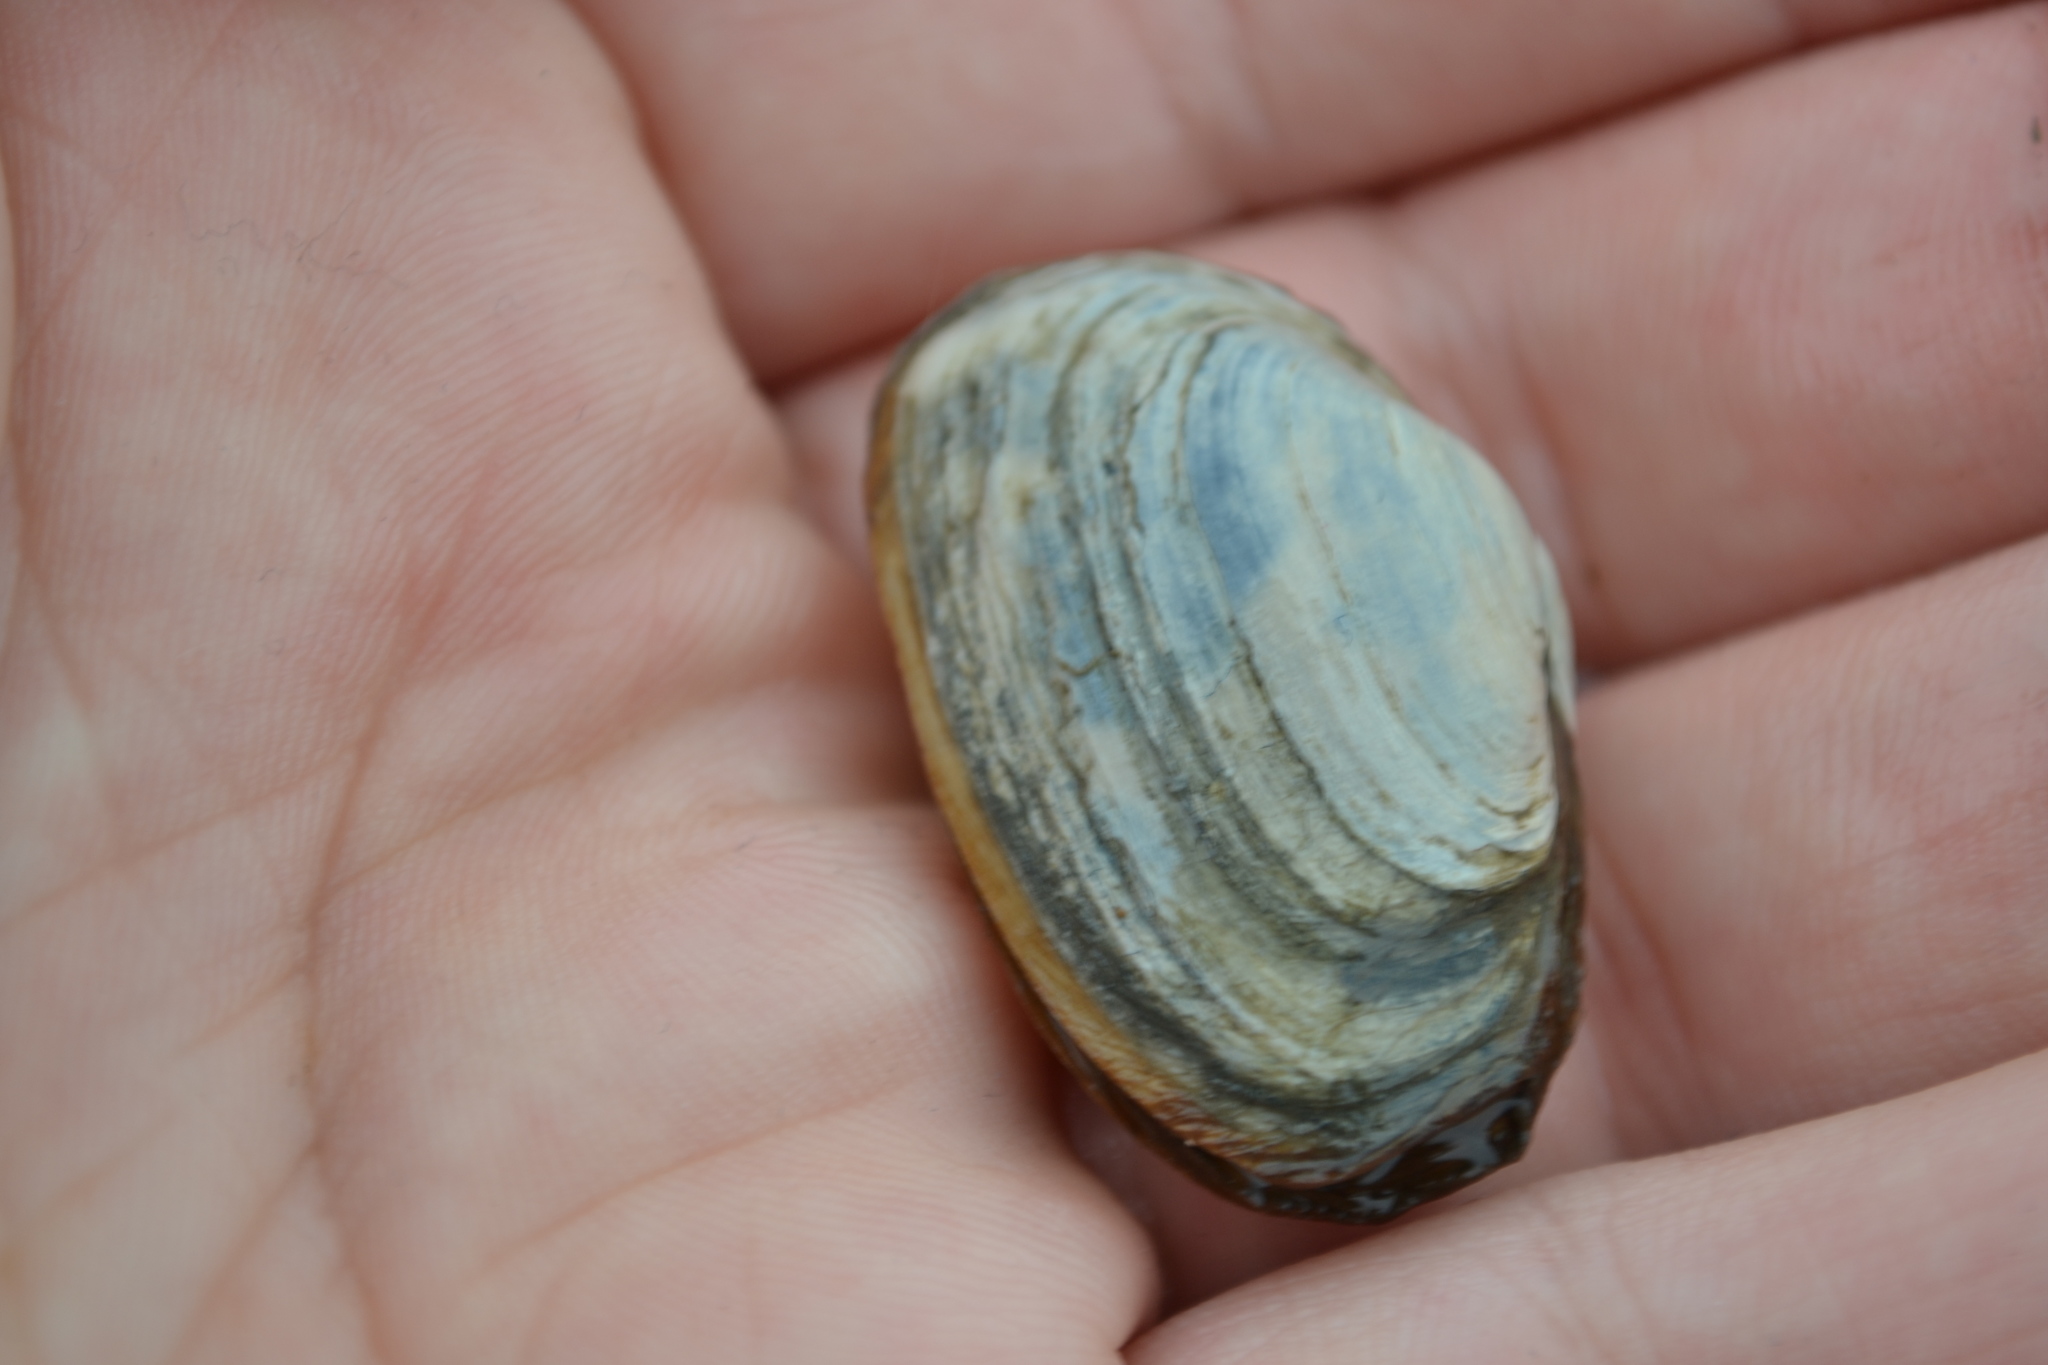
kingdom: Animalia
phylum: Mollusca
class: Bivalvia
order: Myida
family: Myidae
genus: Mya
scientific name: Mya arenaria
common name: Soft-shelled clam
